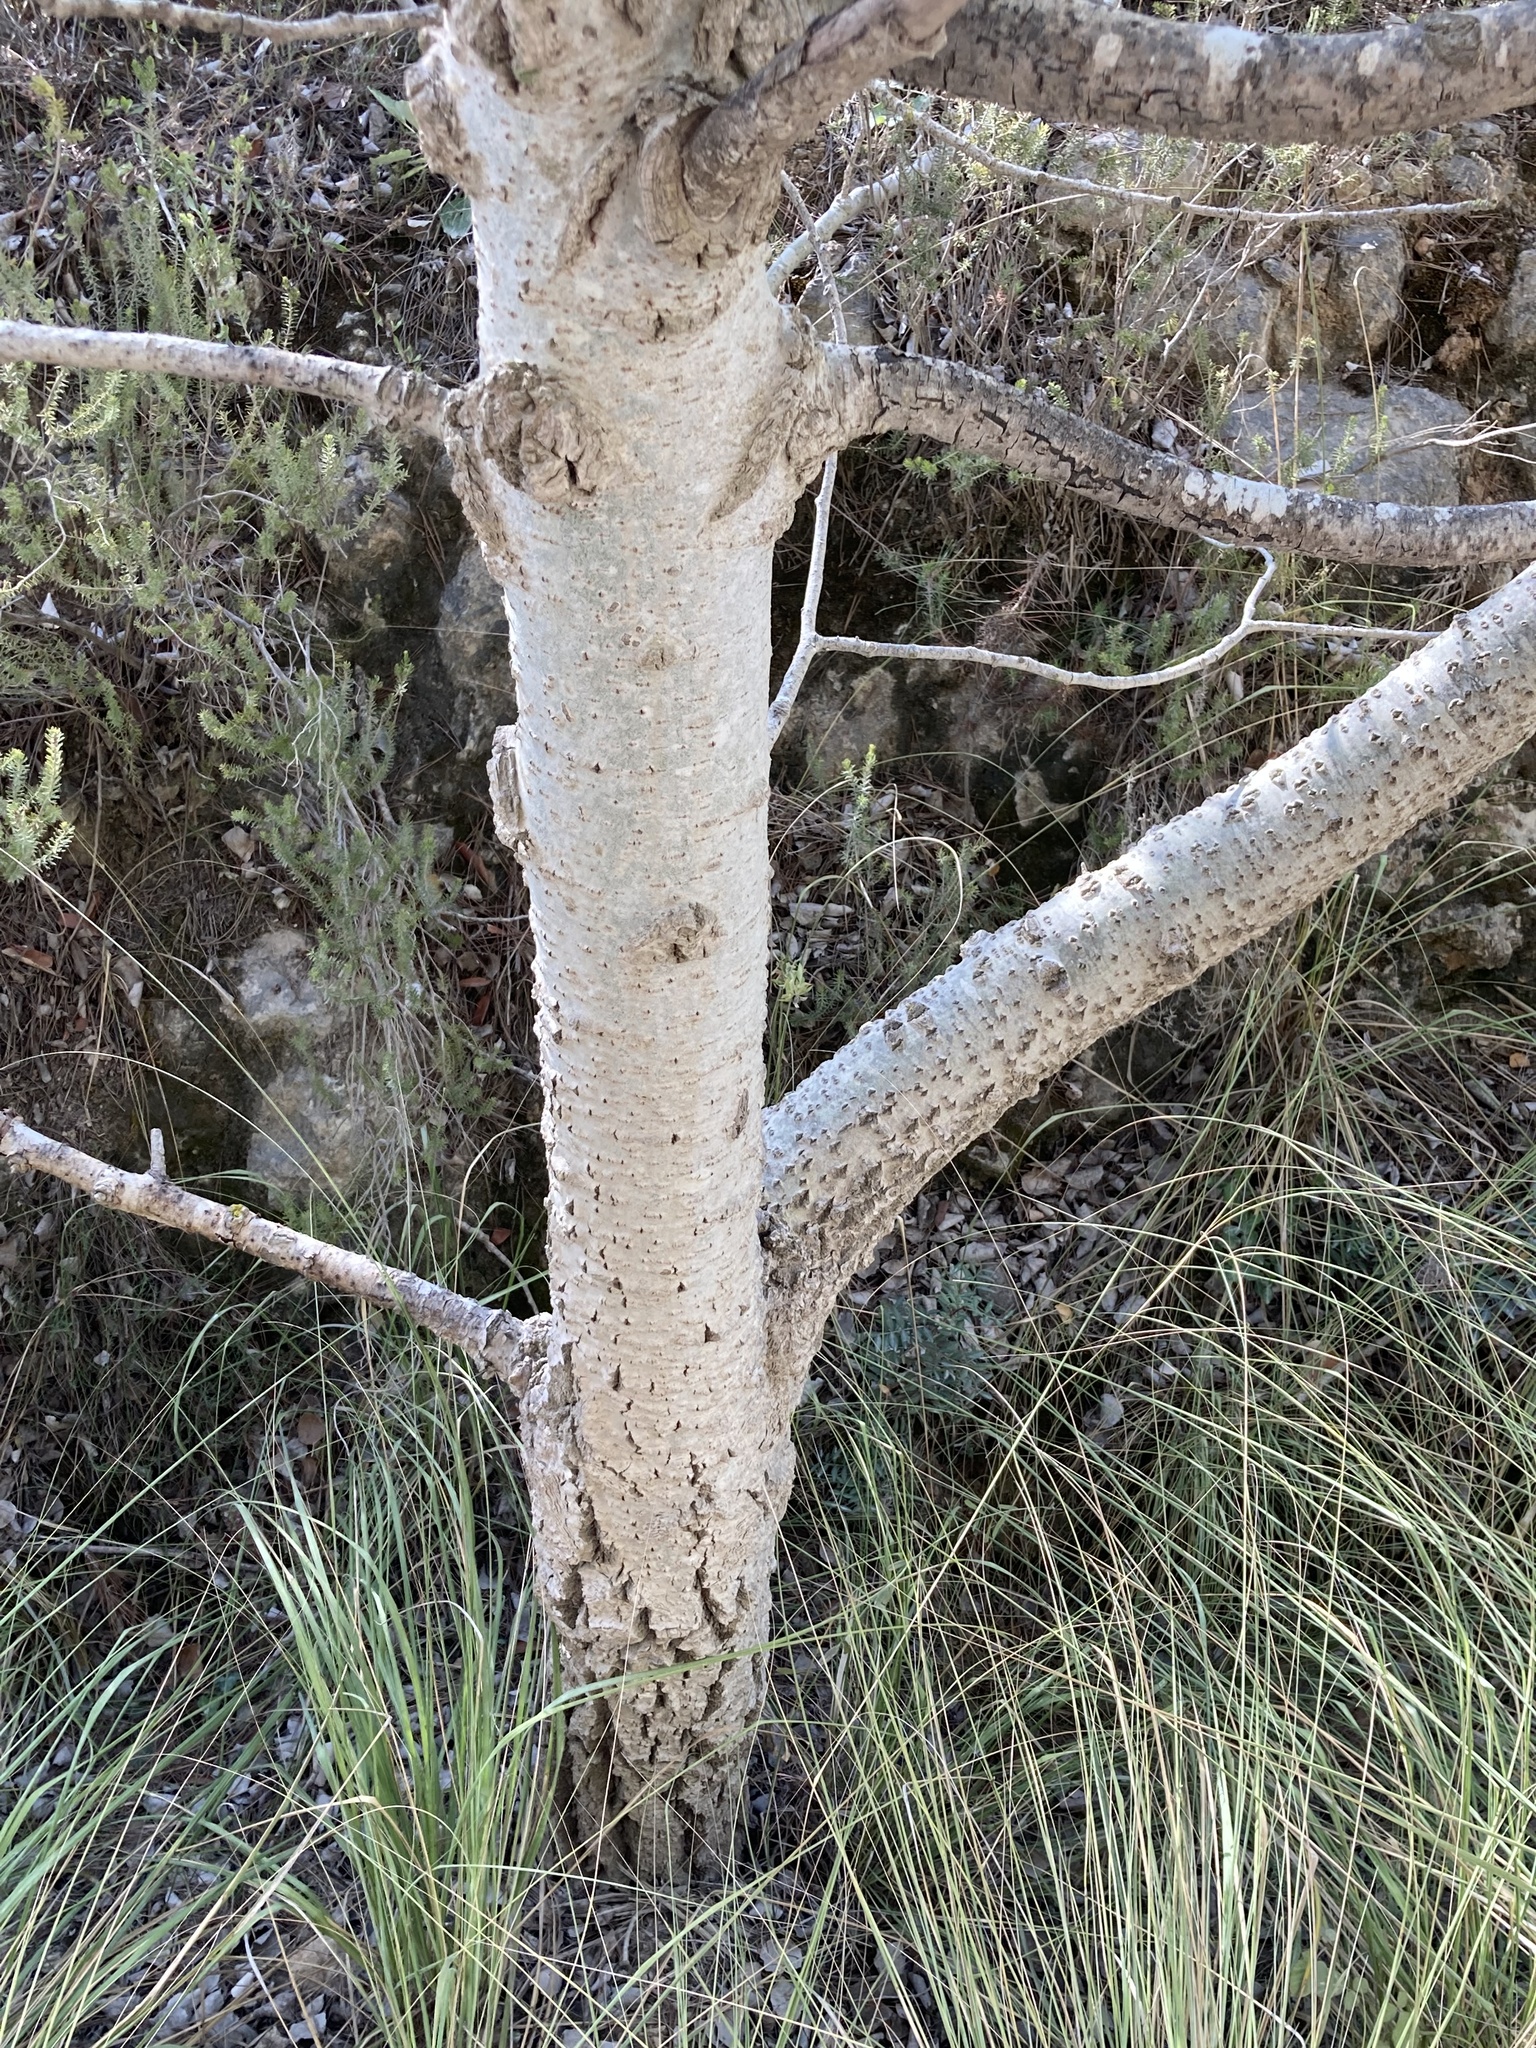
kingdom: Plantae
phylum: Tracheophyta
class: Magnoliopsida
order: Malpighiales
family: Salicaceae
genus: Populus
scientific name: Populus alba
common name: White poplar
